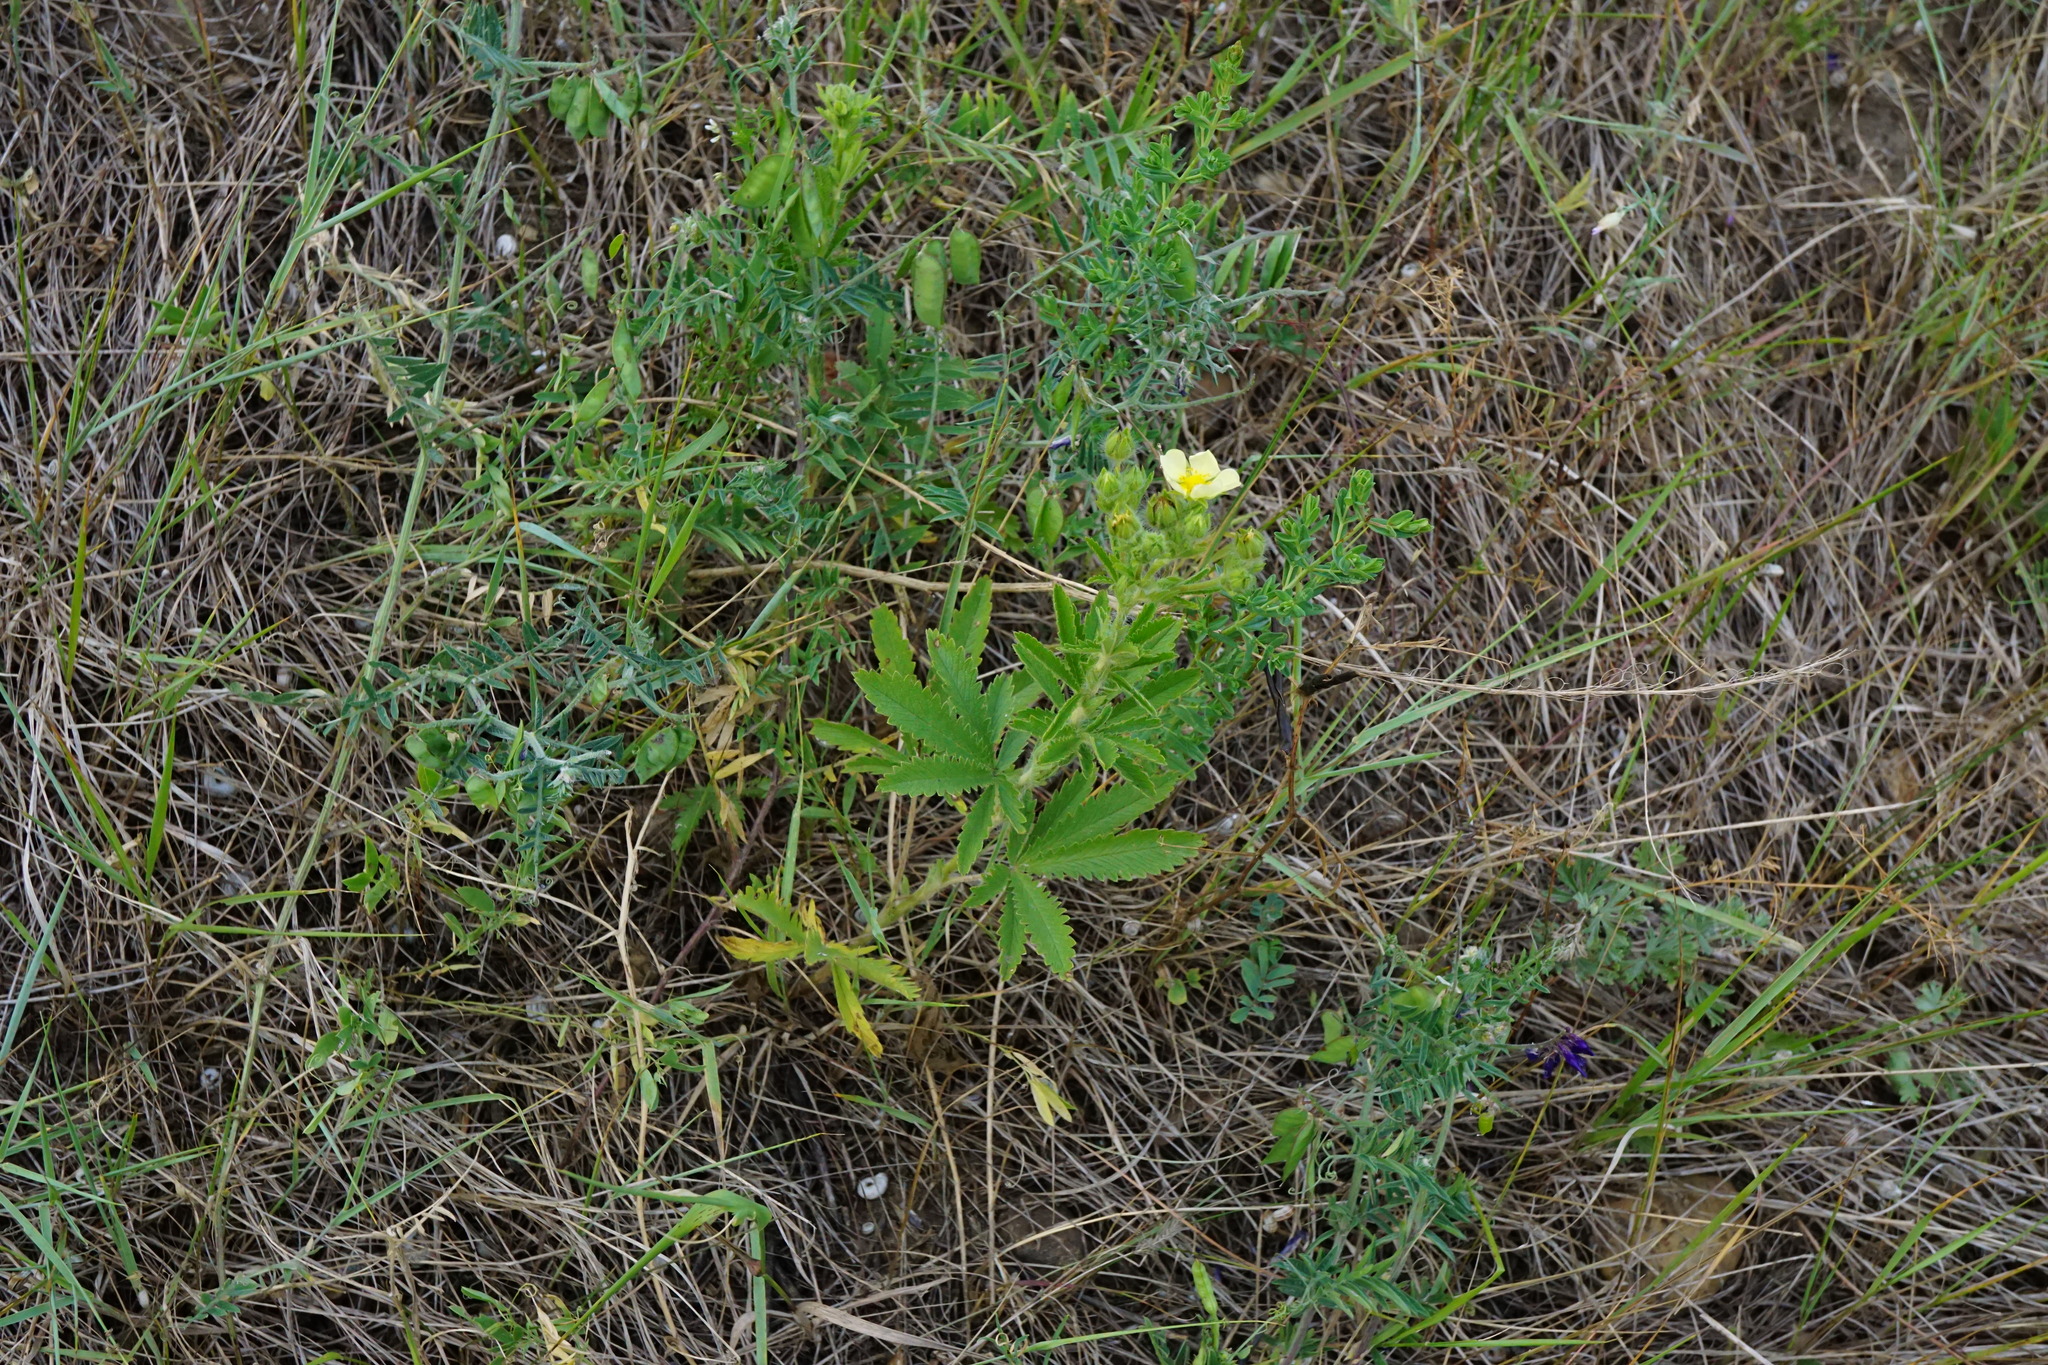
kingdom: Plantae
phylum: Tracheophyta
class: Magnoliopsida
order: Rosales
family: Rosaceae
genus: Potentilla
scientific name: Potentilla recta
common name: Sulphur cinquefoil
